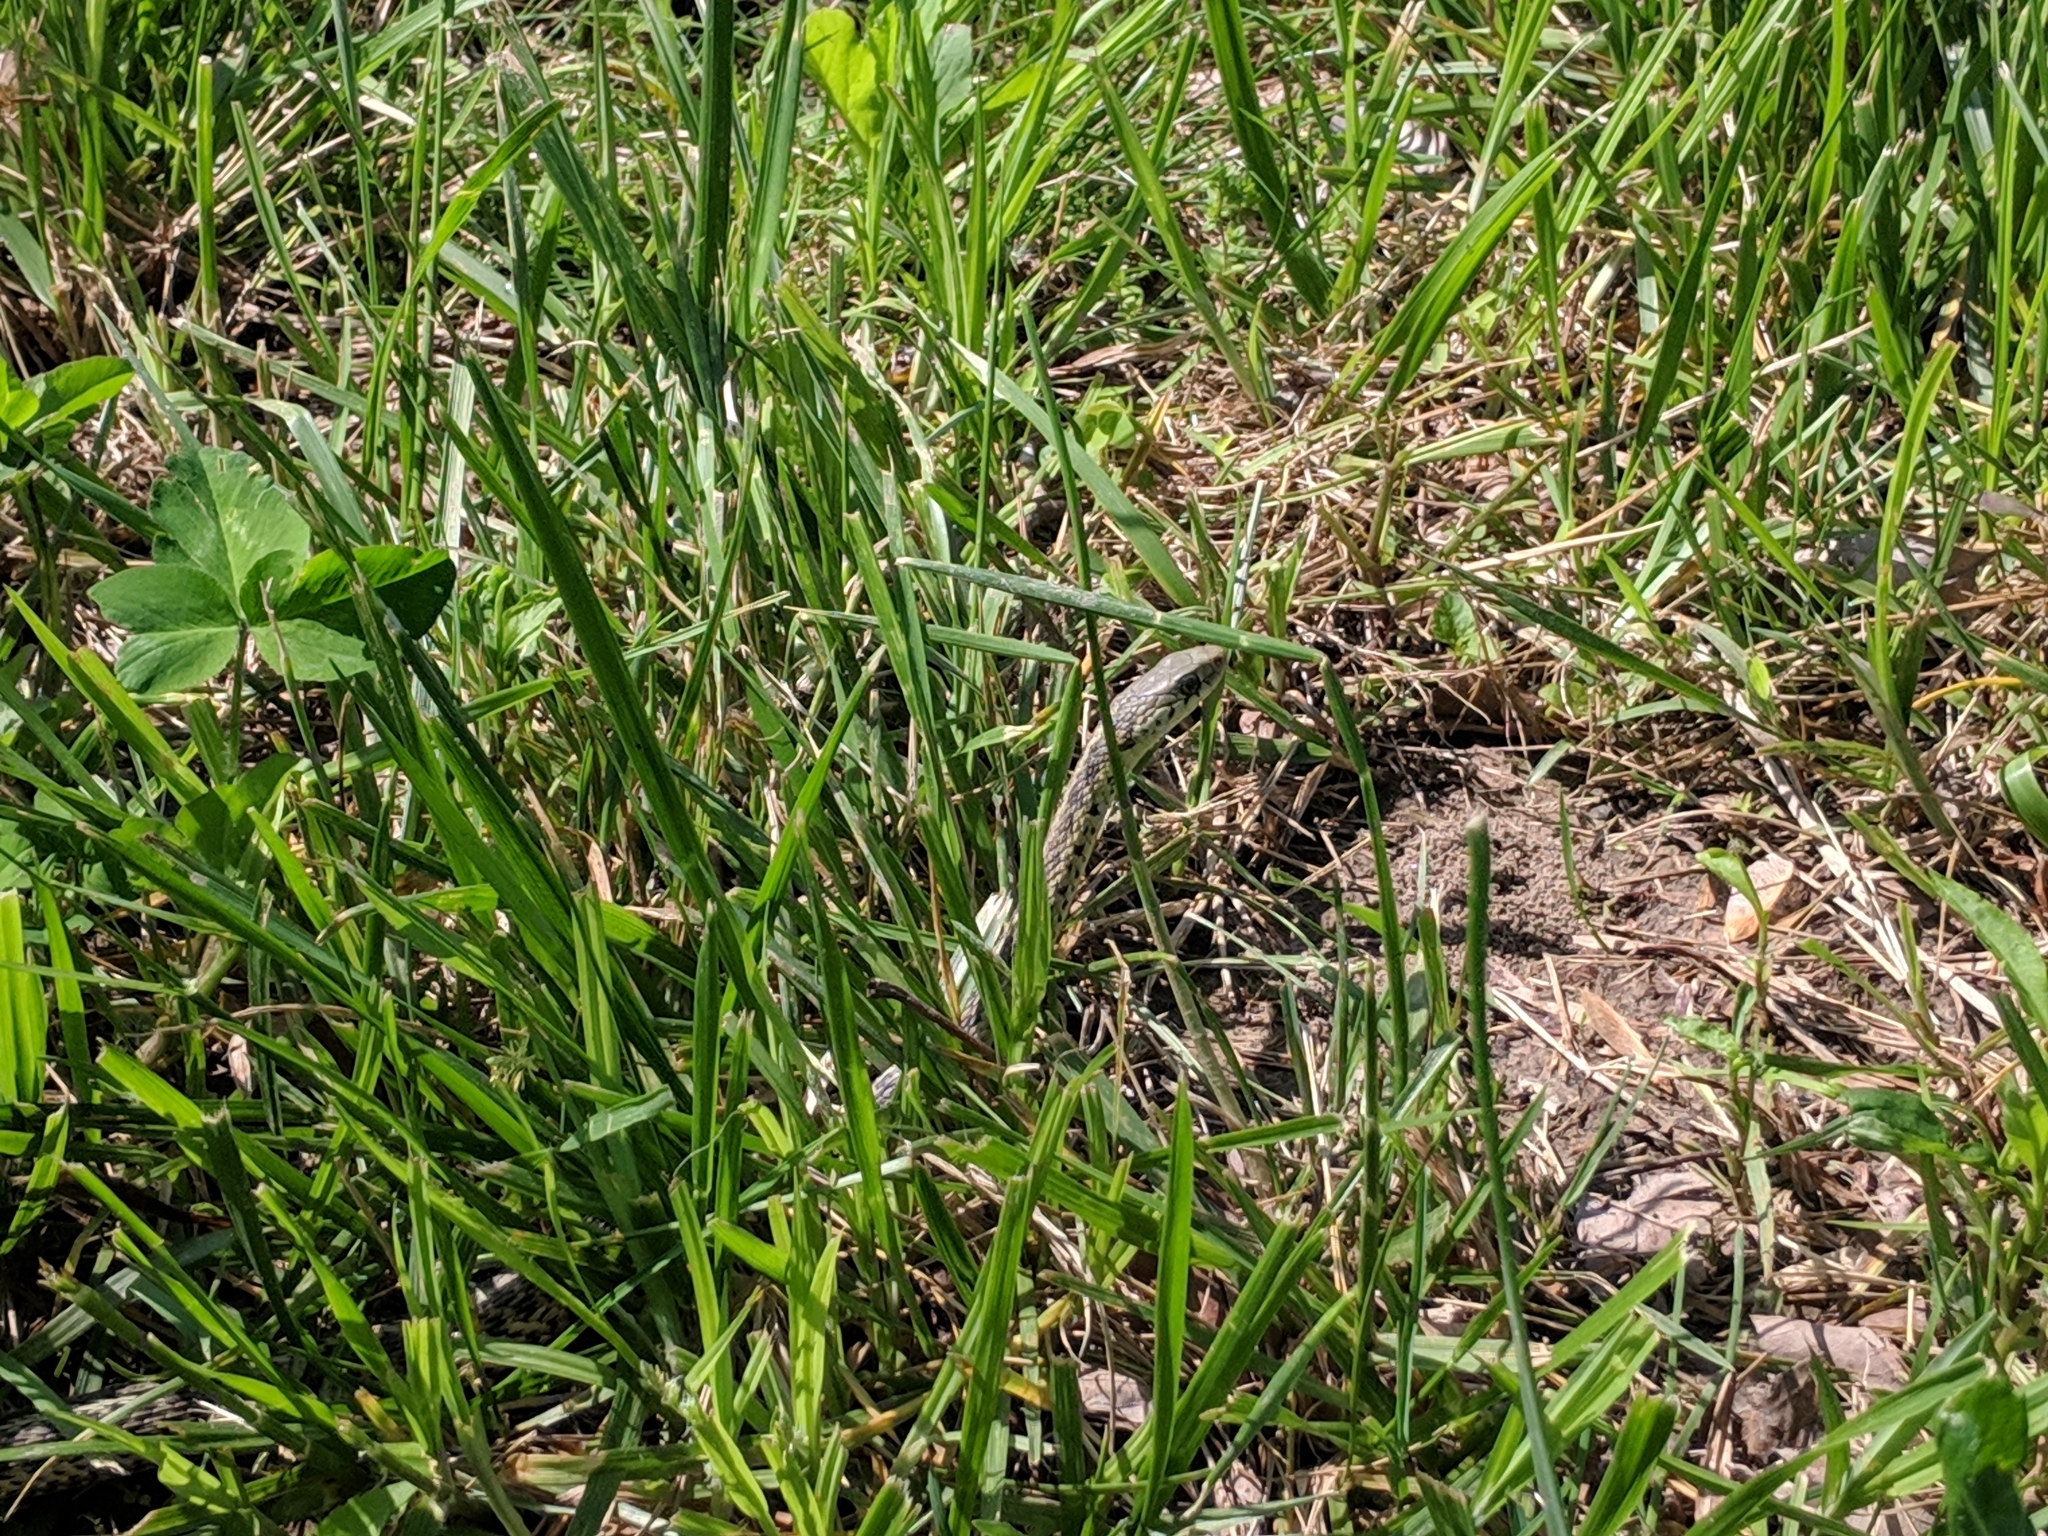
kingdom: Animalia
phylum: Chordata
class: Squamata
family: Colubridae
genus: Thamnophis
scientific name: Thamnophis sirtalis
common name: Common garter snake
